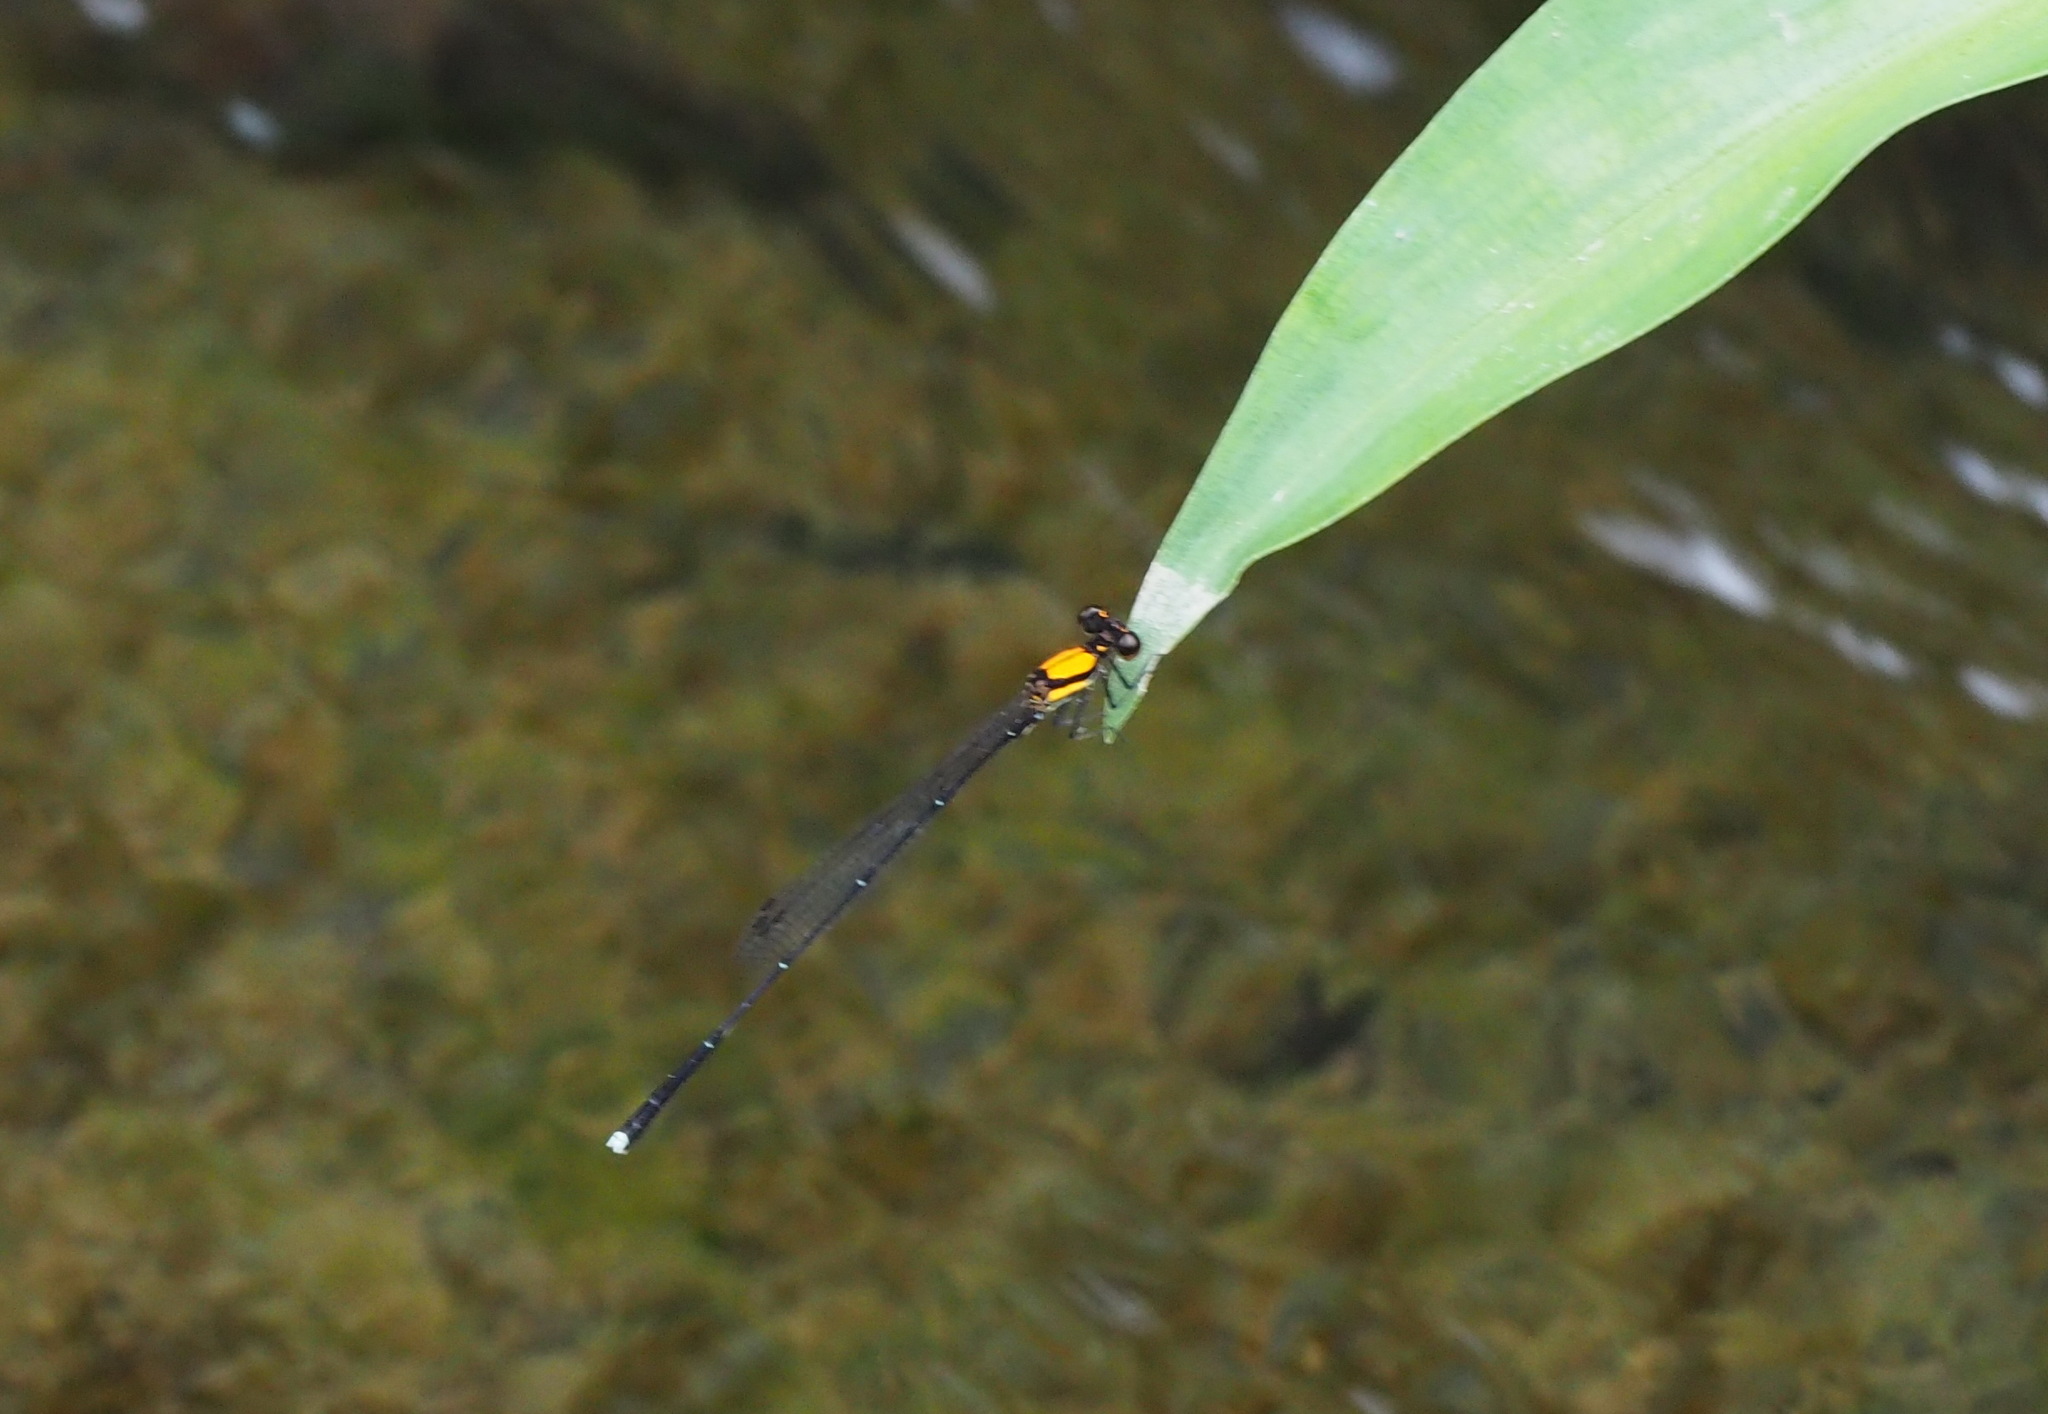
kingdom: Animalia
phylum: Arthropoda
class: Insecta
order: Odonata
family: Platycnemididae
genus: Prodasineura
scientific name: Prodasineura croconota
